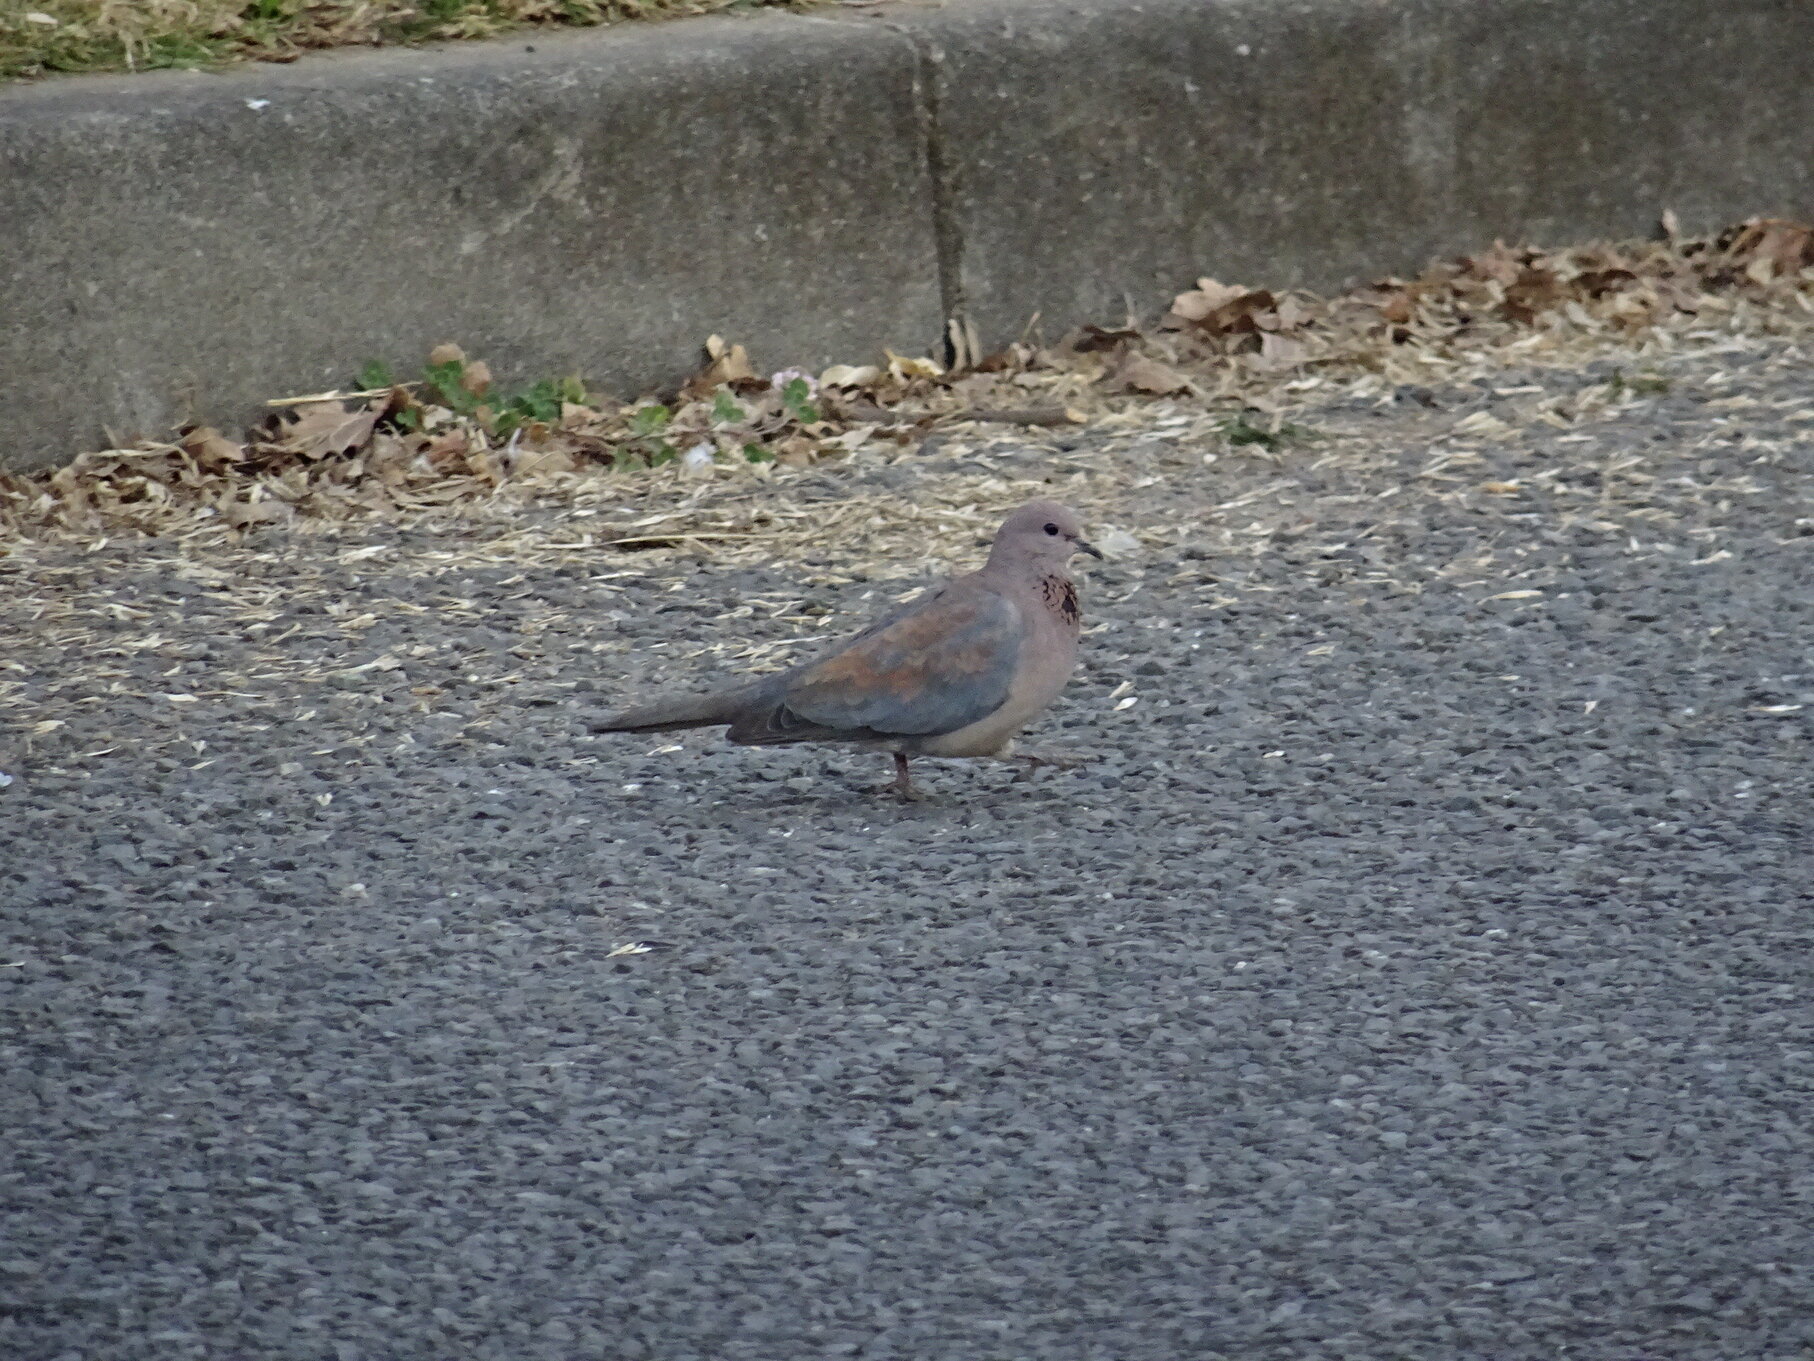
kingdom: Animalia
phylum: Chordata
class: Aves
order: Columbiformes
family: Columbidae
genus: Spilopelia
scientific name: Spilopelia senegalensis
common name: Laughing dove
